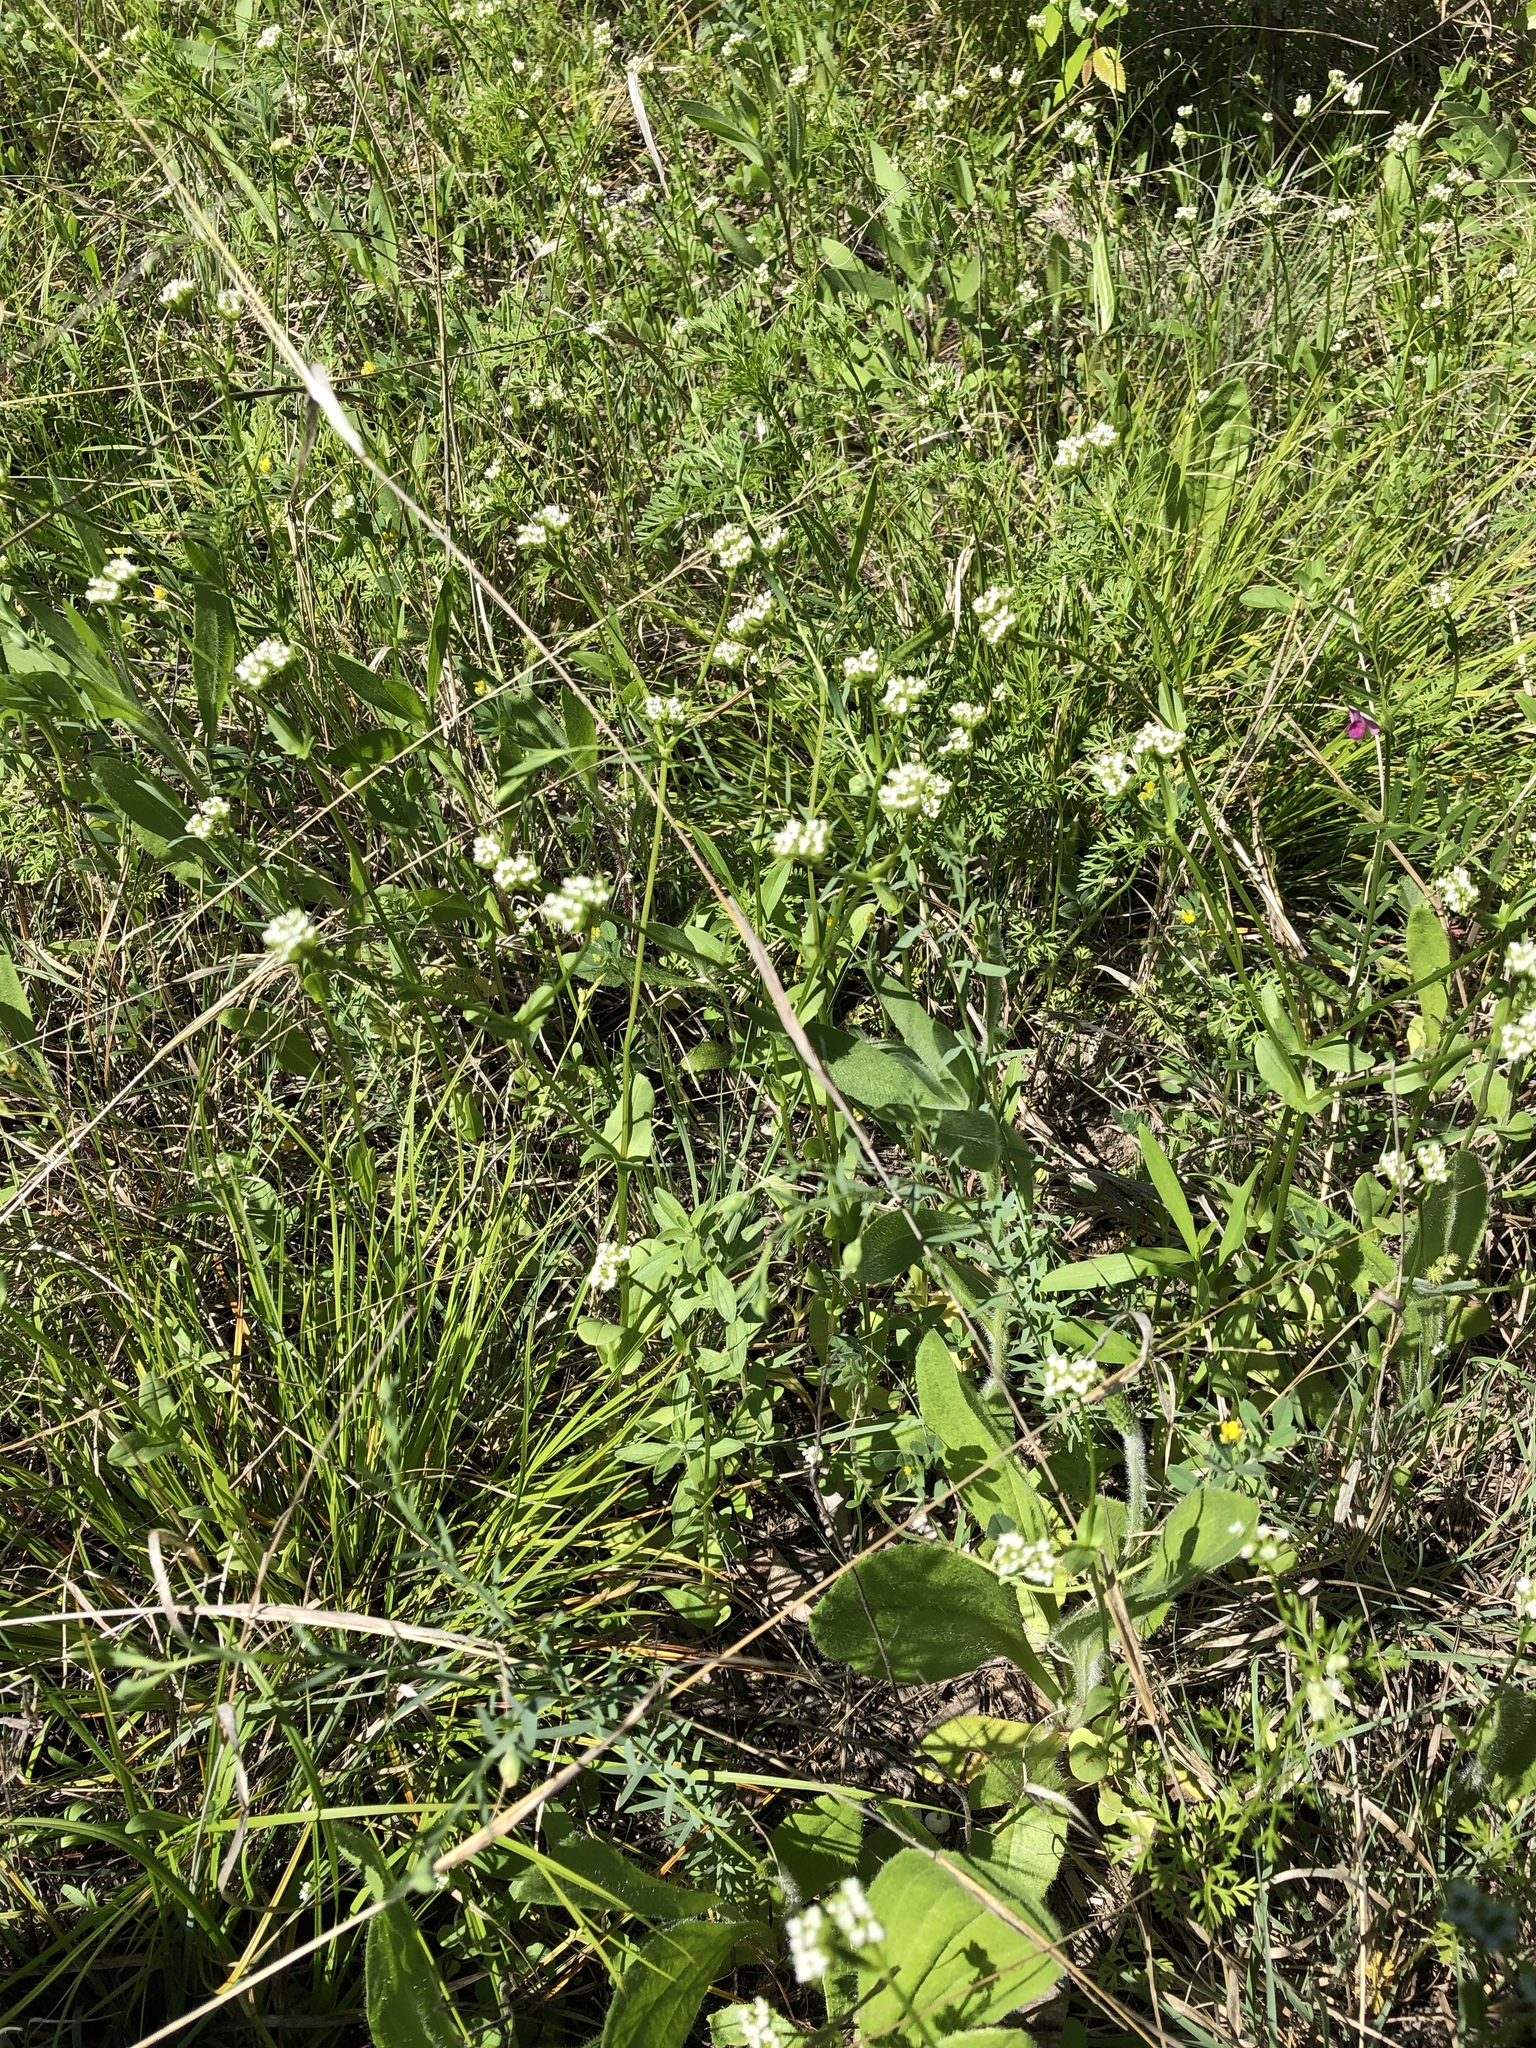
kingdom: Plantae
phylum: Tracheophyta
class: Magnoliopsida
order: Dipsacales
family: Caprifoliaceae
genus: Valerianella
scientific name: Valerianella radiata
